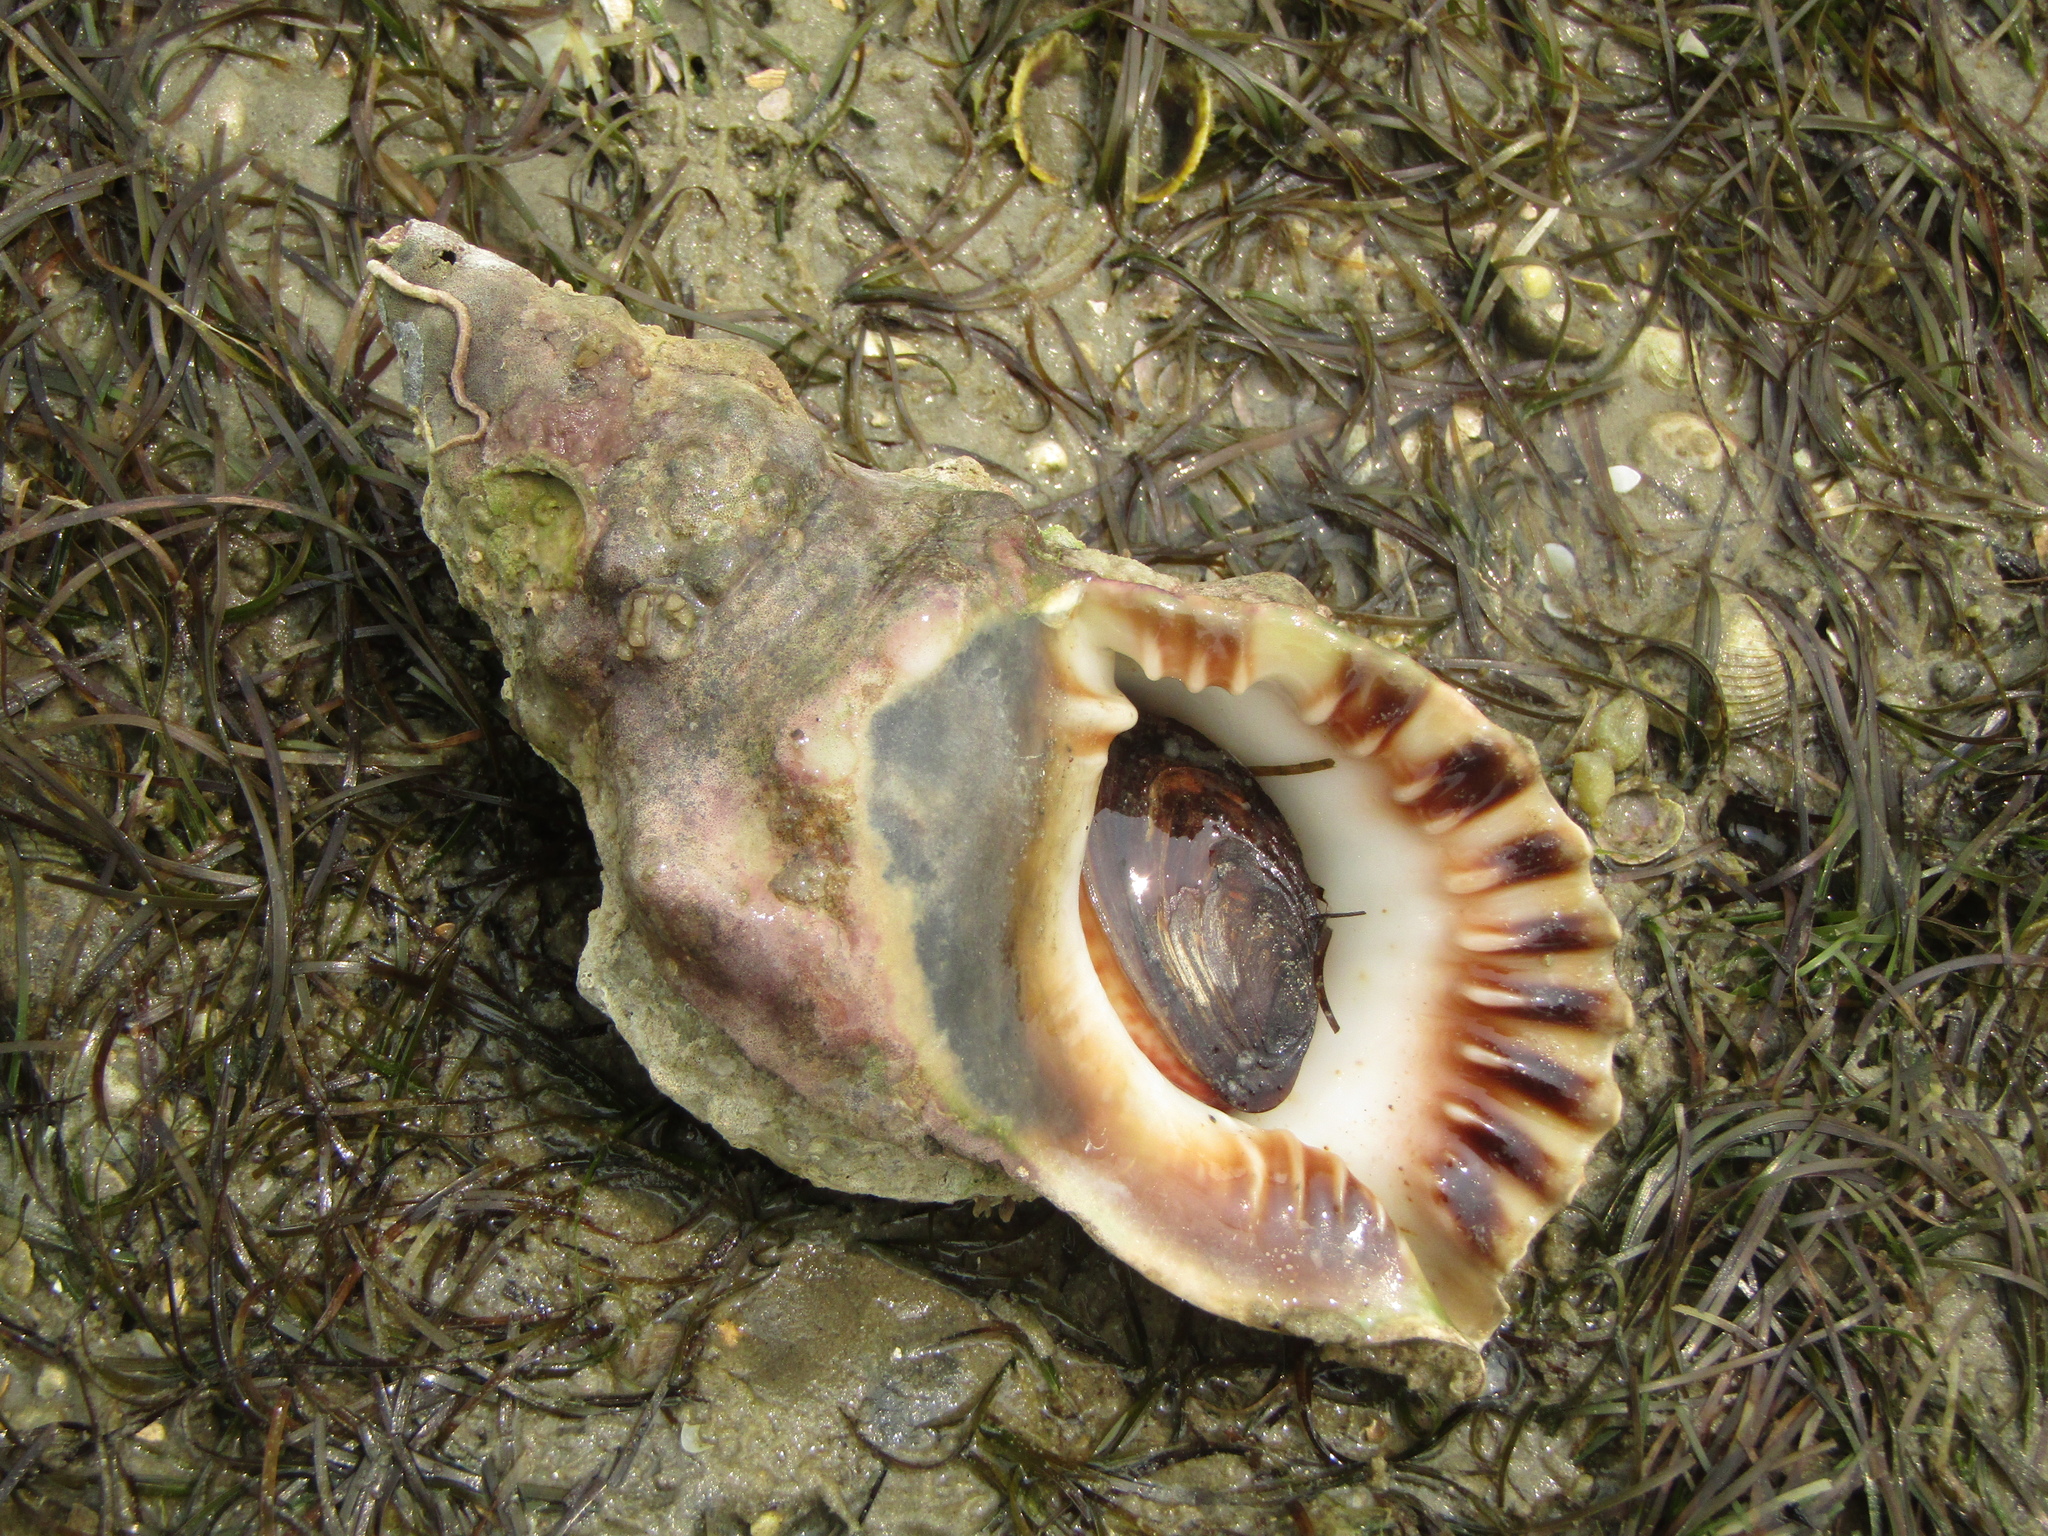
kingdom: Animalia
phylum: Mollusca
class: Gastropoda
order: Littorinimorpha
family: Charoniidae
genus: Charonia
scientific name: Charonia lampas
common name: Knobbed triton
